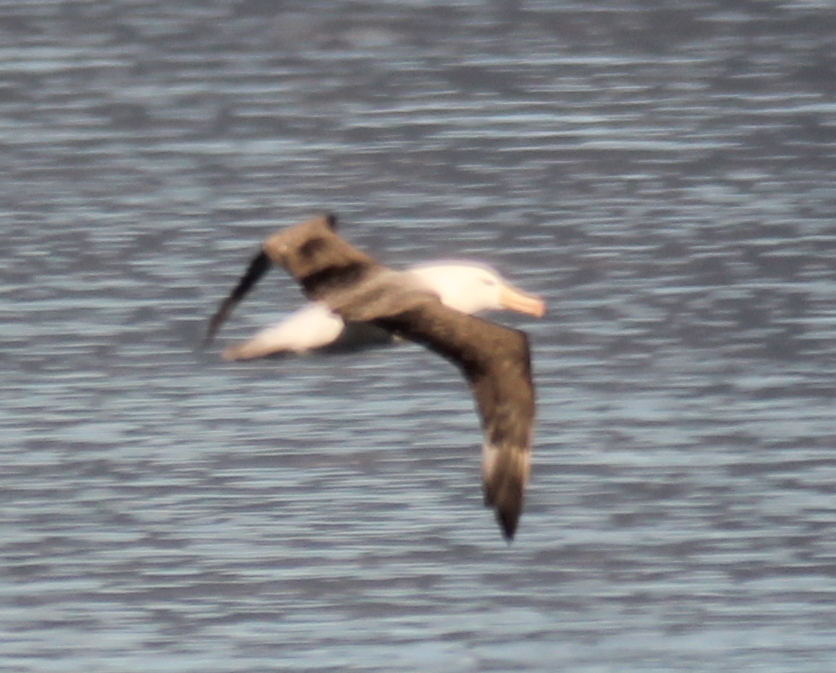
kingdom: Animalia
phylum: Chordata
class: Aves
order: Procellariiformes
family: Diomedeidae
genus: Thalassarche
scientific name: Thalassarche melanophris
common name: Black-browed albatross
